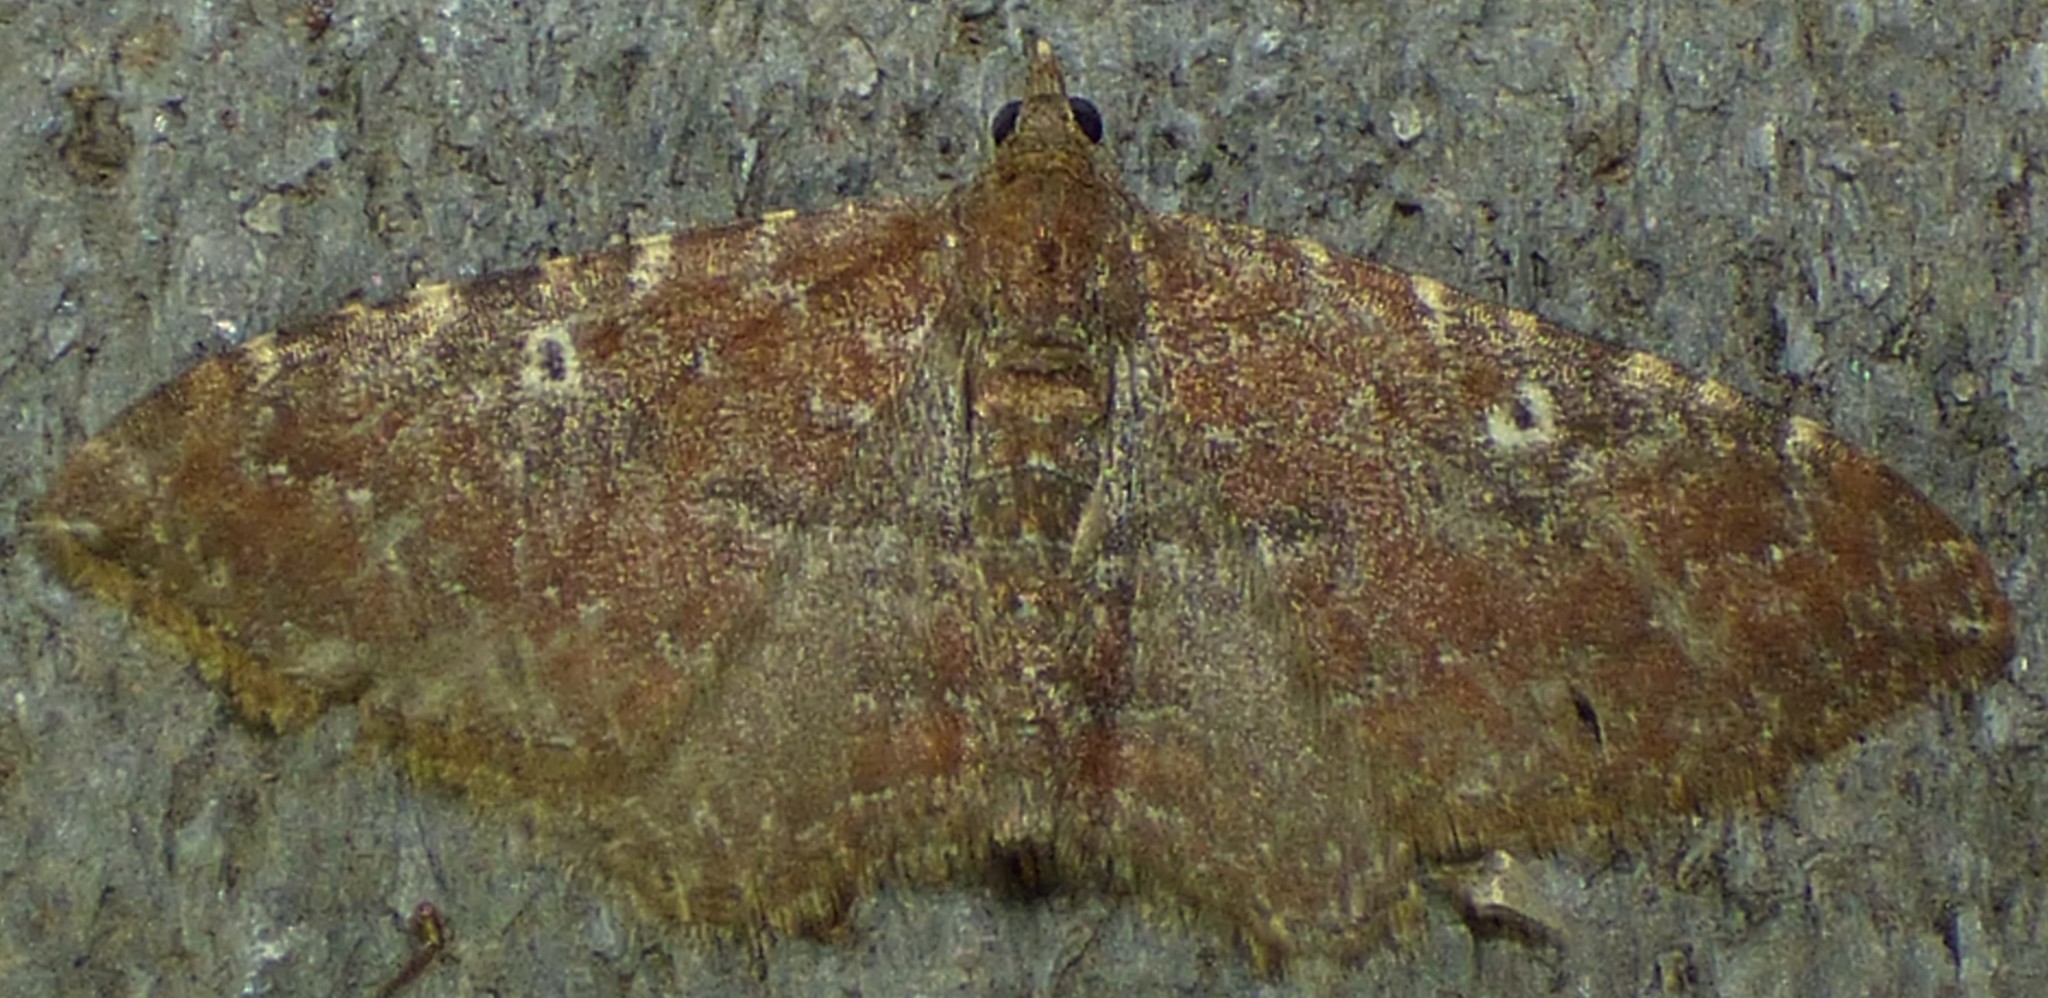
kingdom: Animalia
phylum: Arthropoda
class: Insecta
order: Lepidoptera
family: Geometridae
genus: Orthonama
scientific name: Orthonama obstipata
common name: The gem
